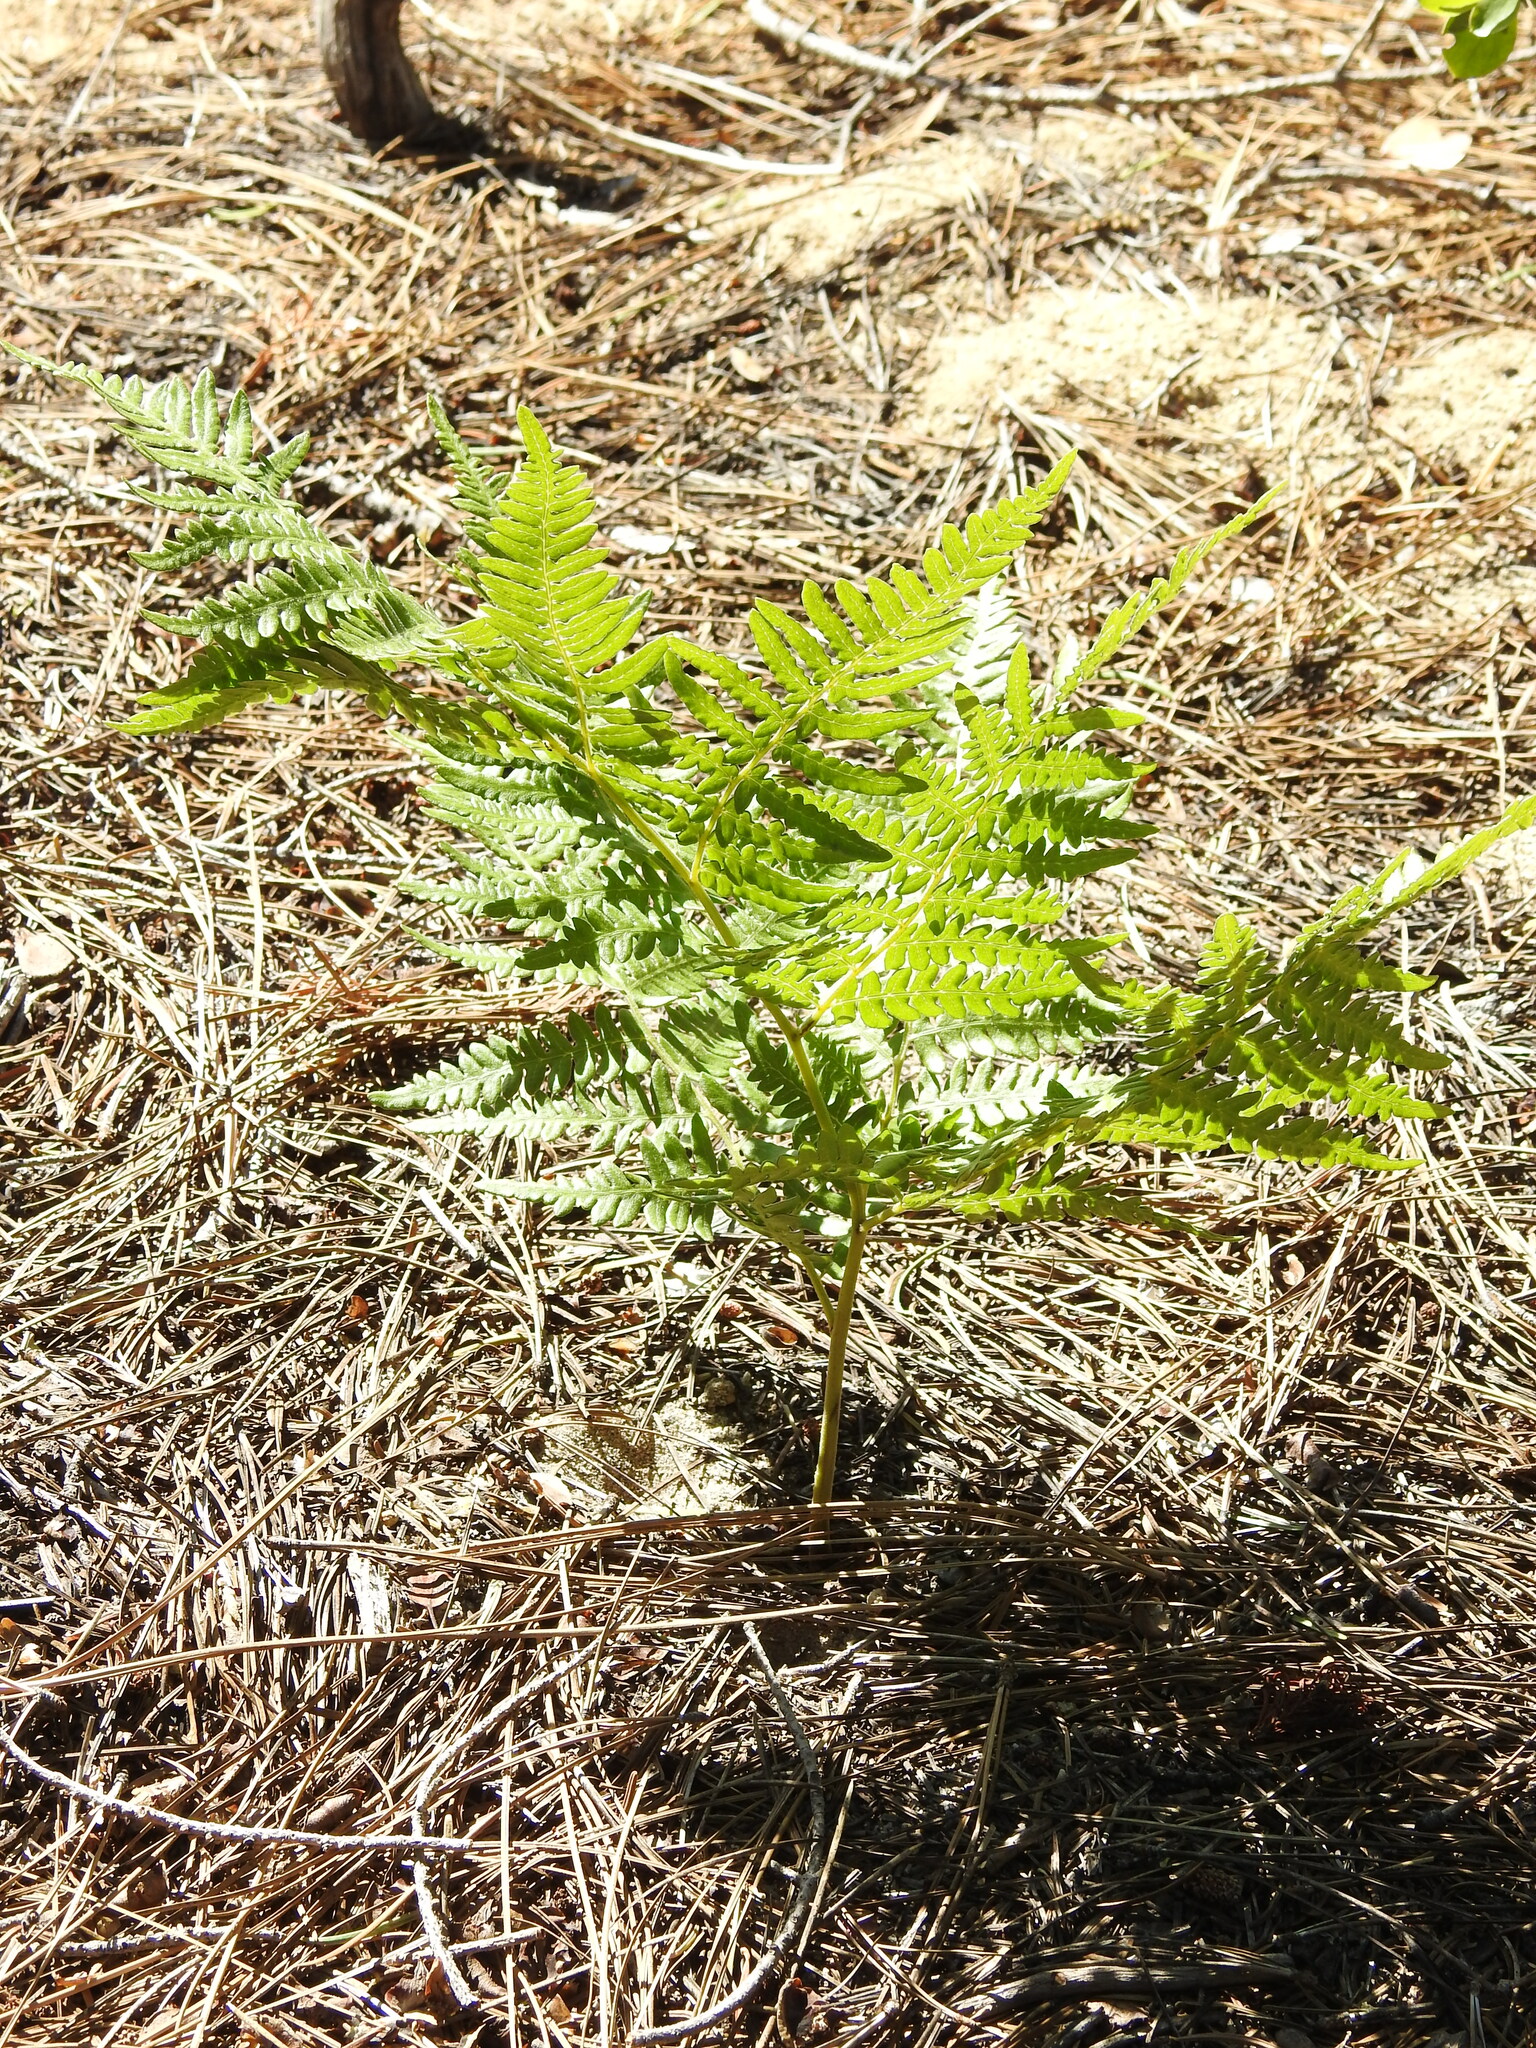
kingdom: Plantae
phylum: Tracheophyta
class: Polypodiopsida
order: Polypodiales
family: Dennstaedtiaceae
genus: Pteridium
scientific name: Pteridium aquilinum
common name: Bracken
